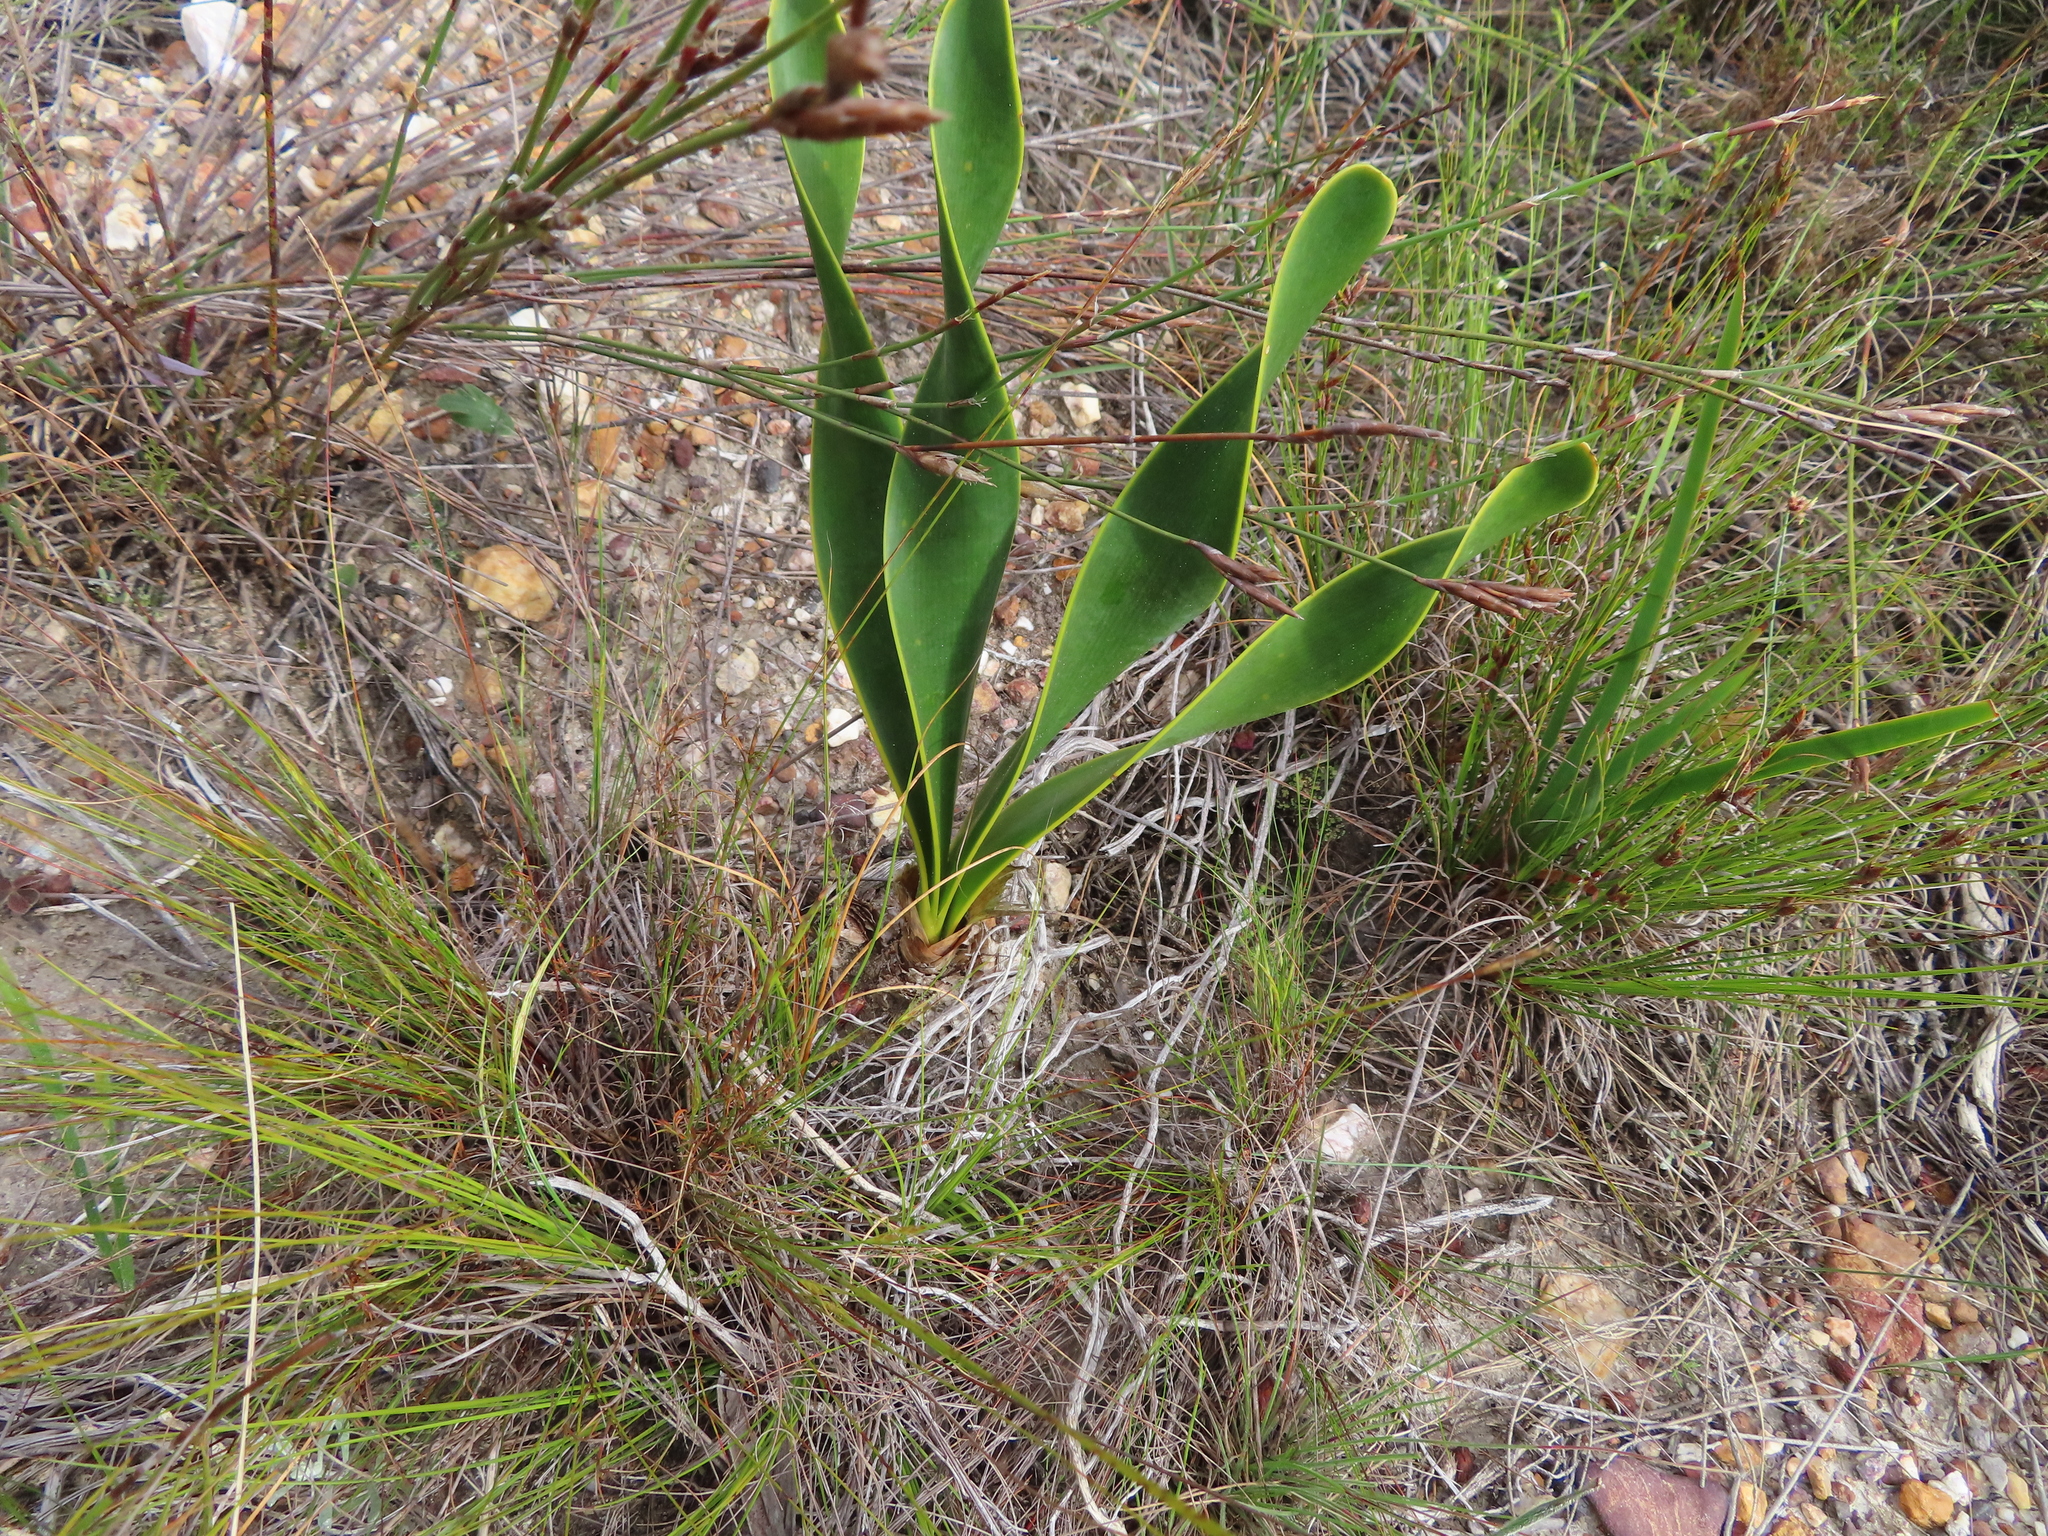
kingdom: Plantae
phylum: Tracheophyta
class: Liliopsida
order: Asparagales
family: Amaryllidaceae
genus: Cyrtanthus
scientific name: Cyrtanthus carneus
